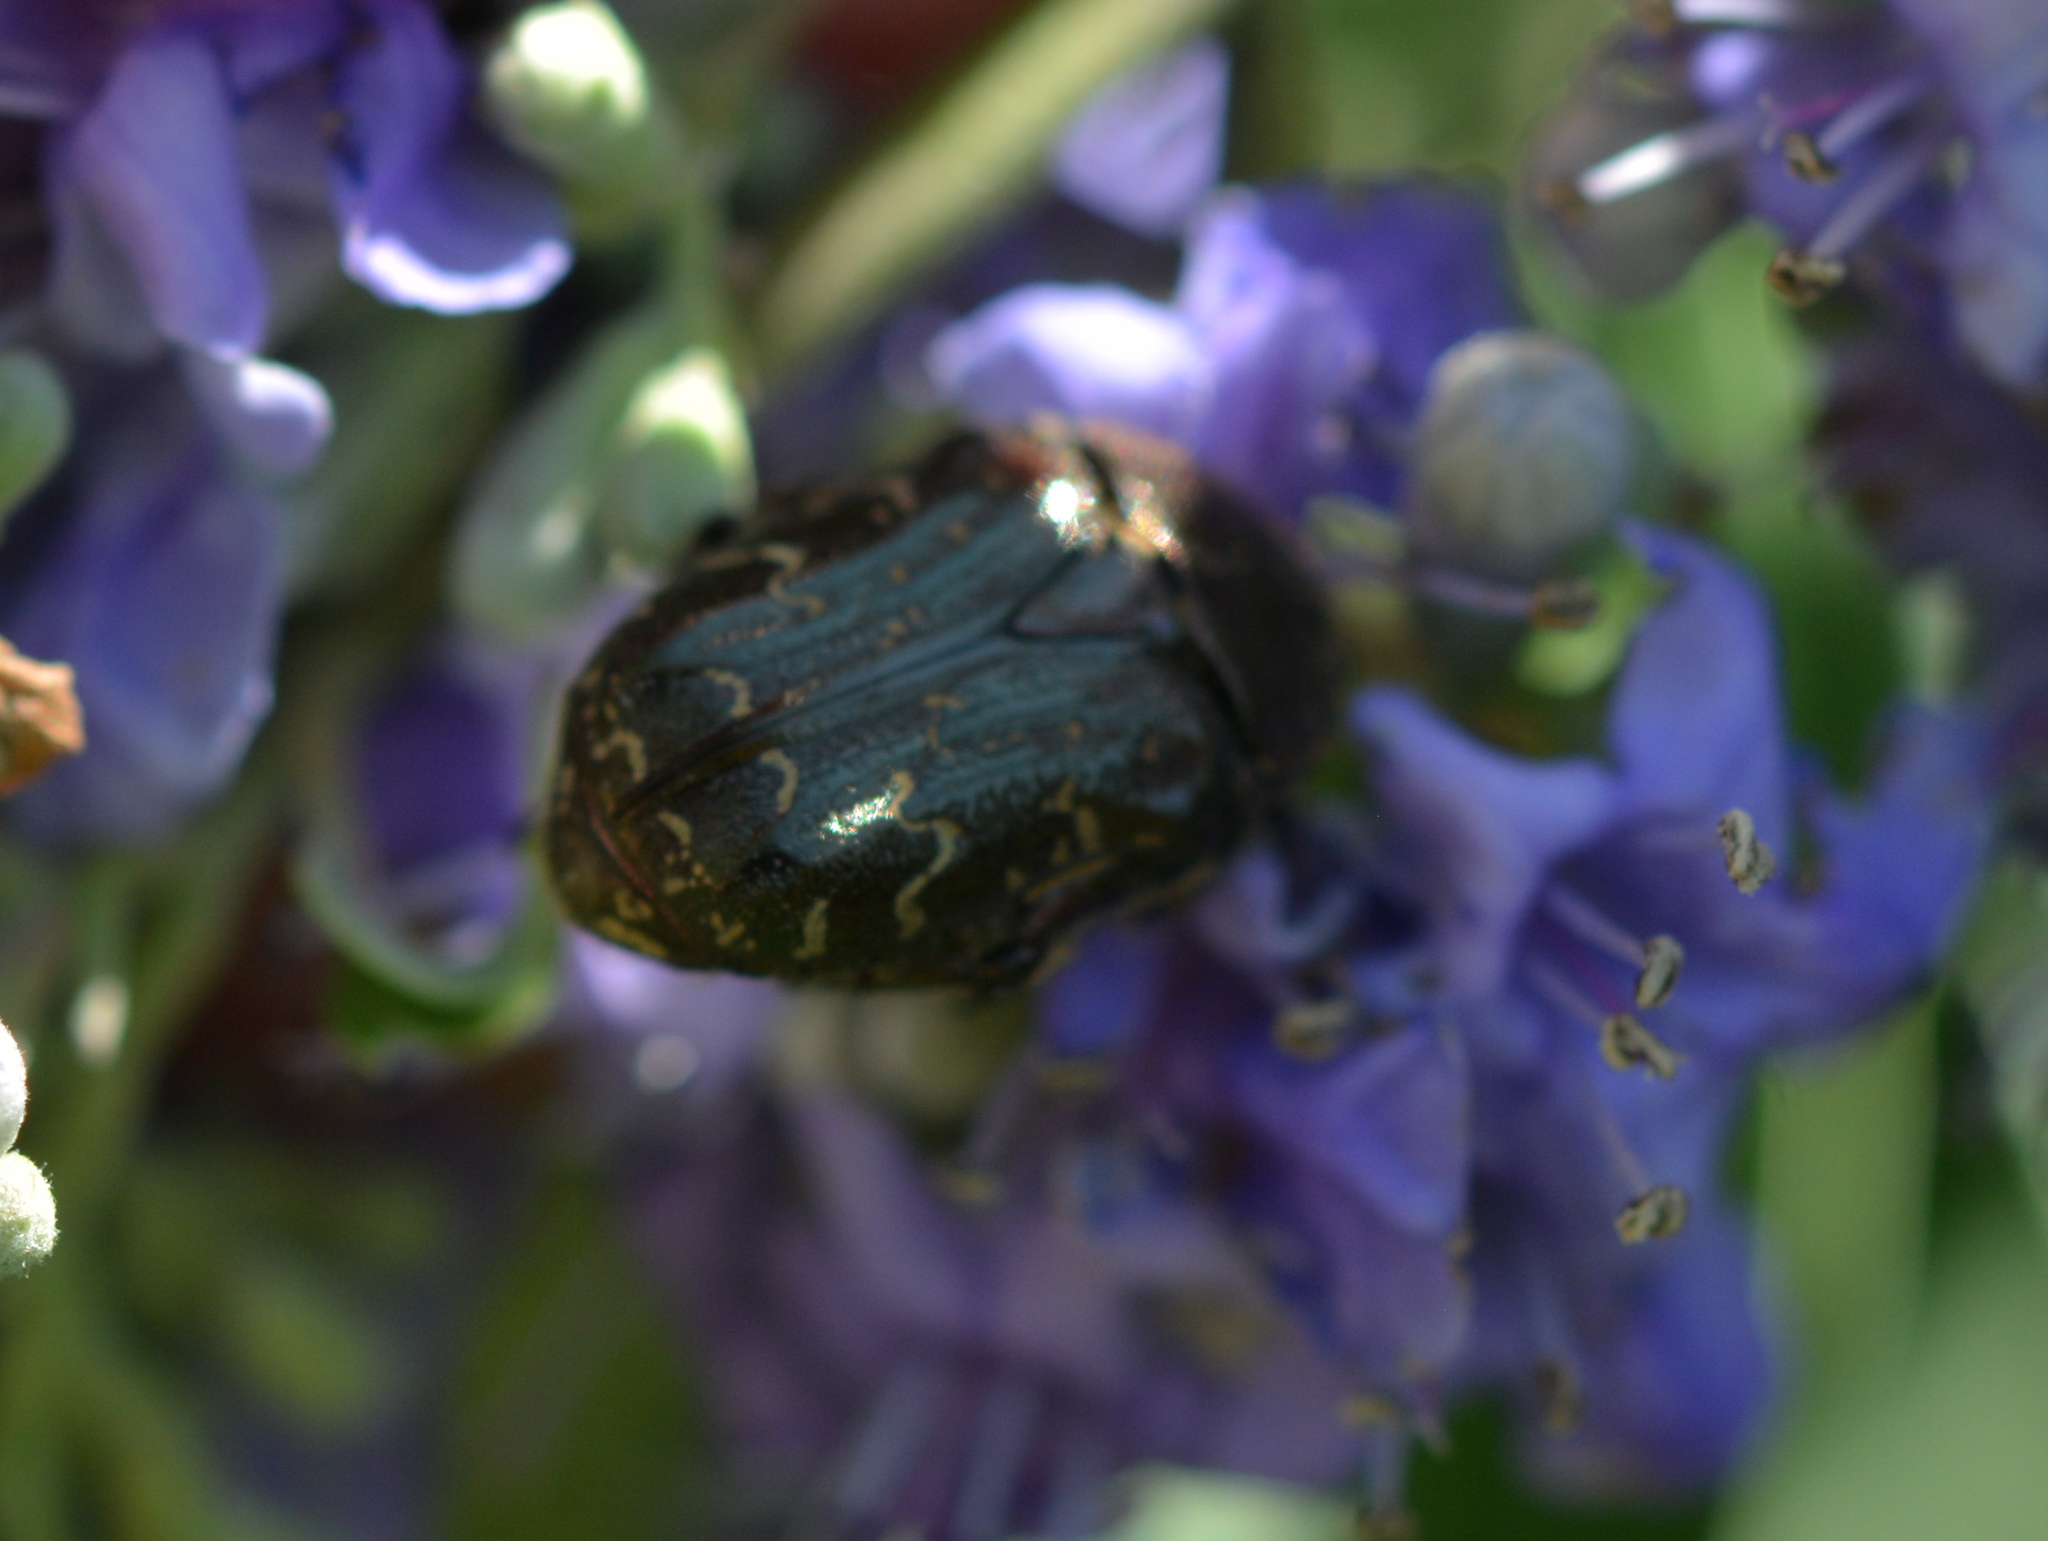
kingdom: Animalia
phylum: Arthropoda
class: Insecta
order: Coleoptera
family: Scarabaeidae
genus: Euphoria
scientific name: Euphoria sepulcralis
